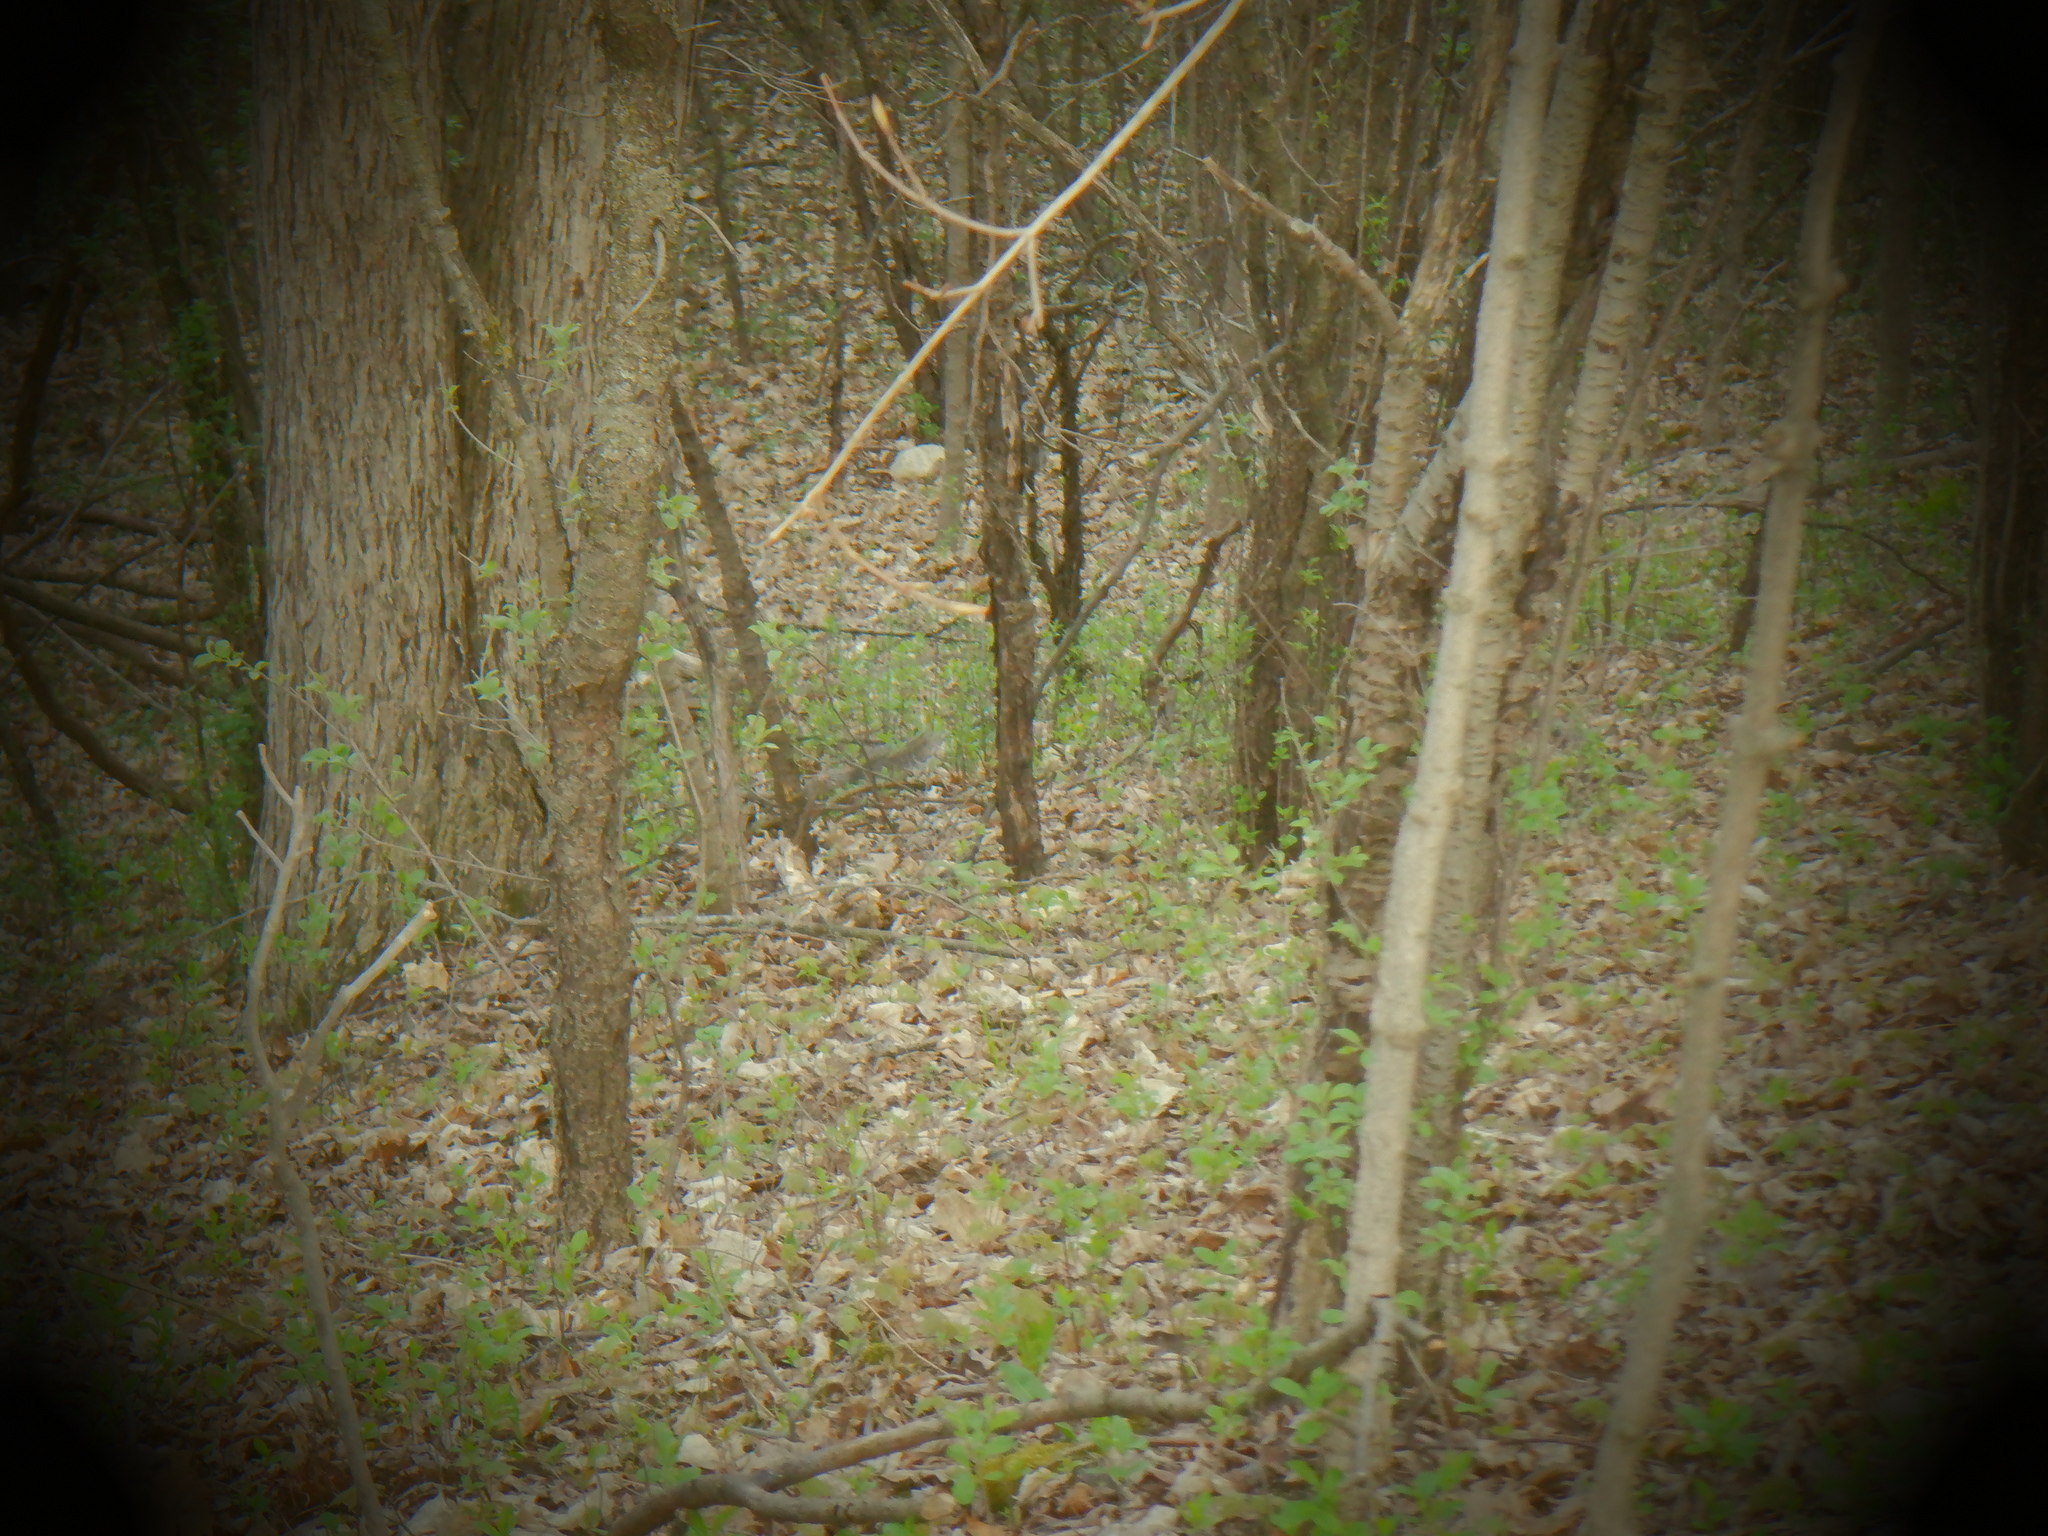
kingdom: Animalia
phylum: Chordata
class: Mammalia
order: Rodentia
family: Sciuridae
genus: Sciurus
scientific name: Sciurus carolinensis
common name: Eastern gray squirrel
